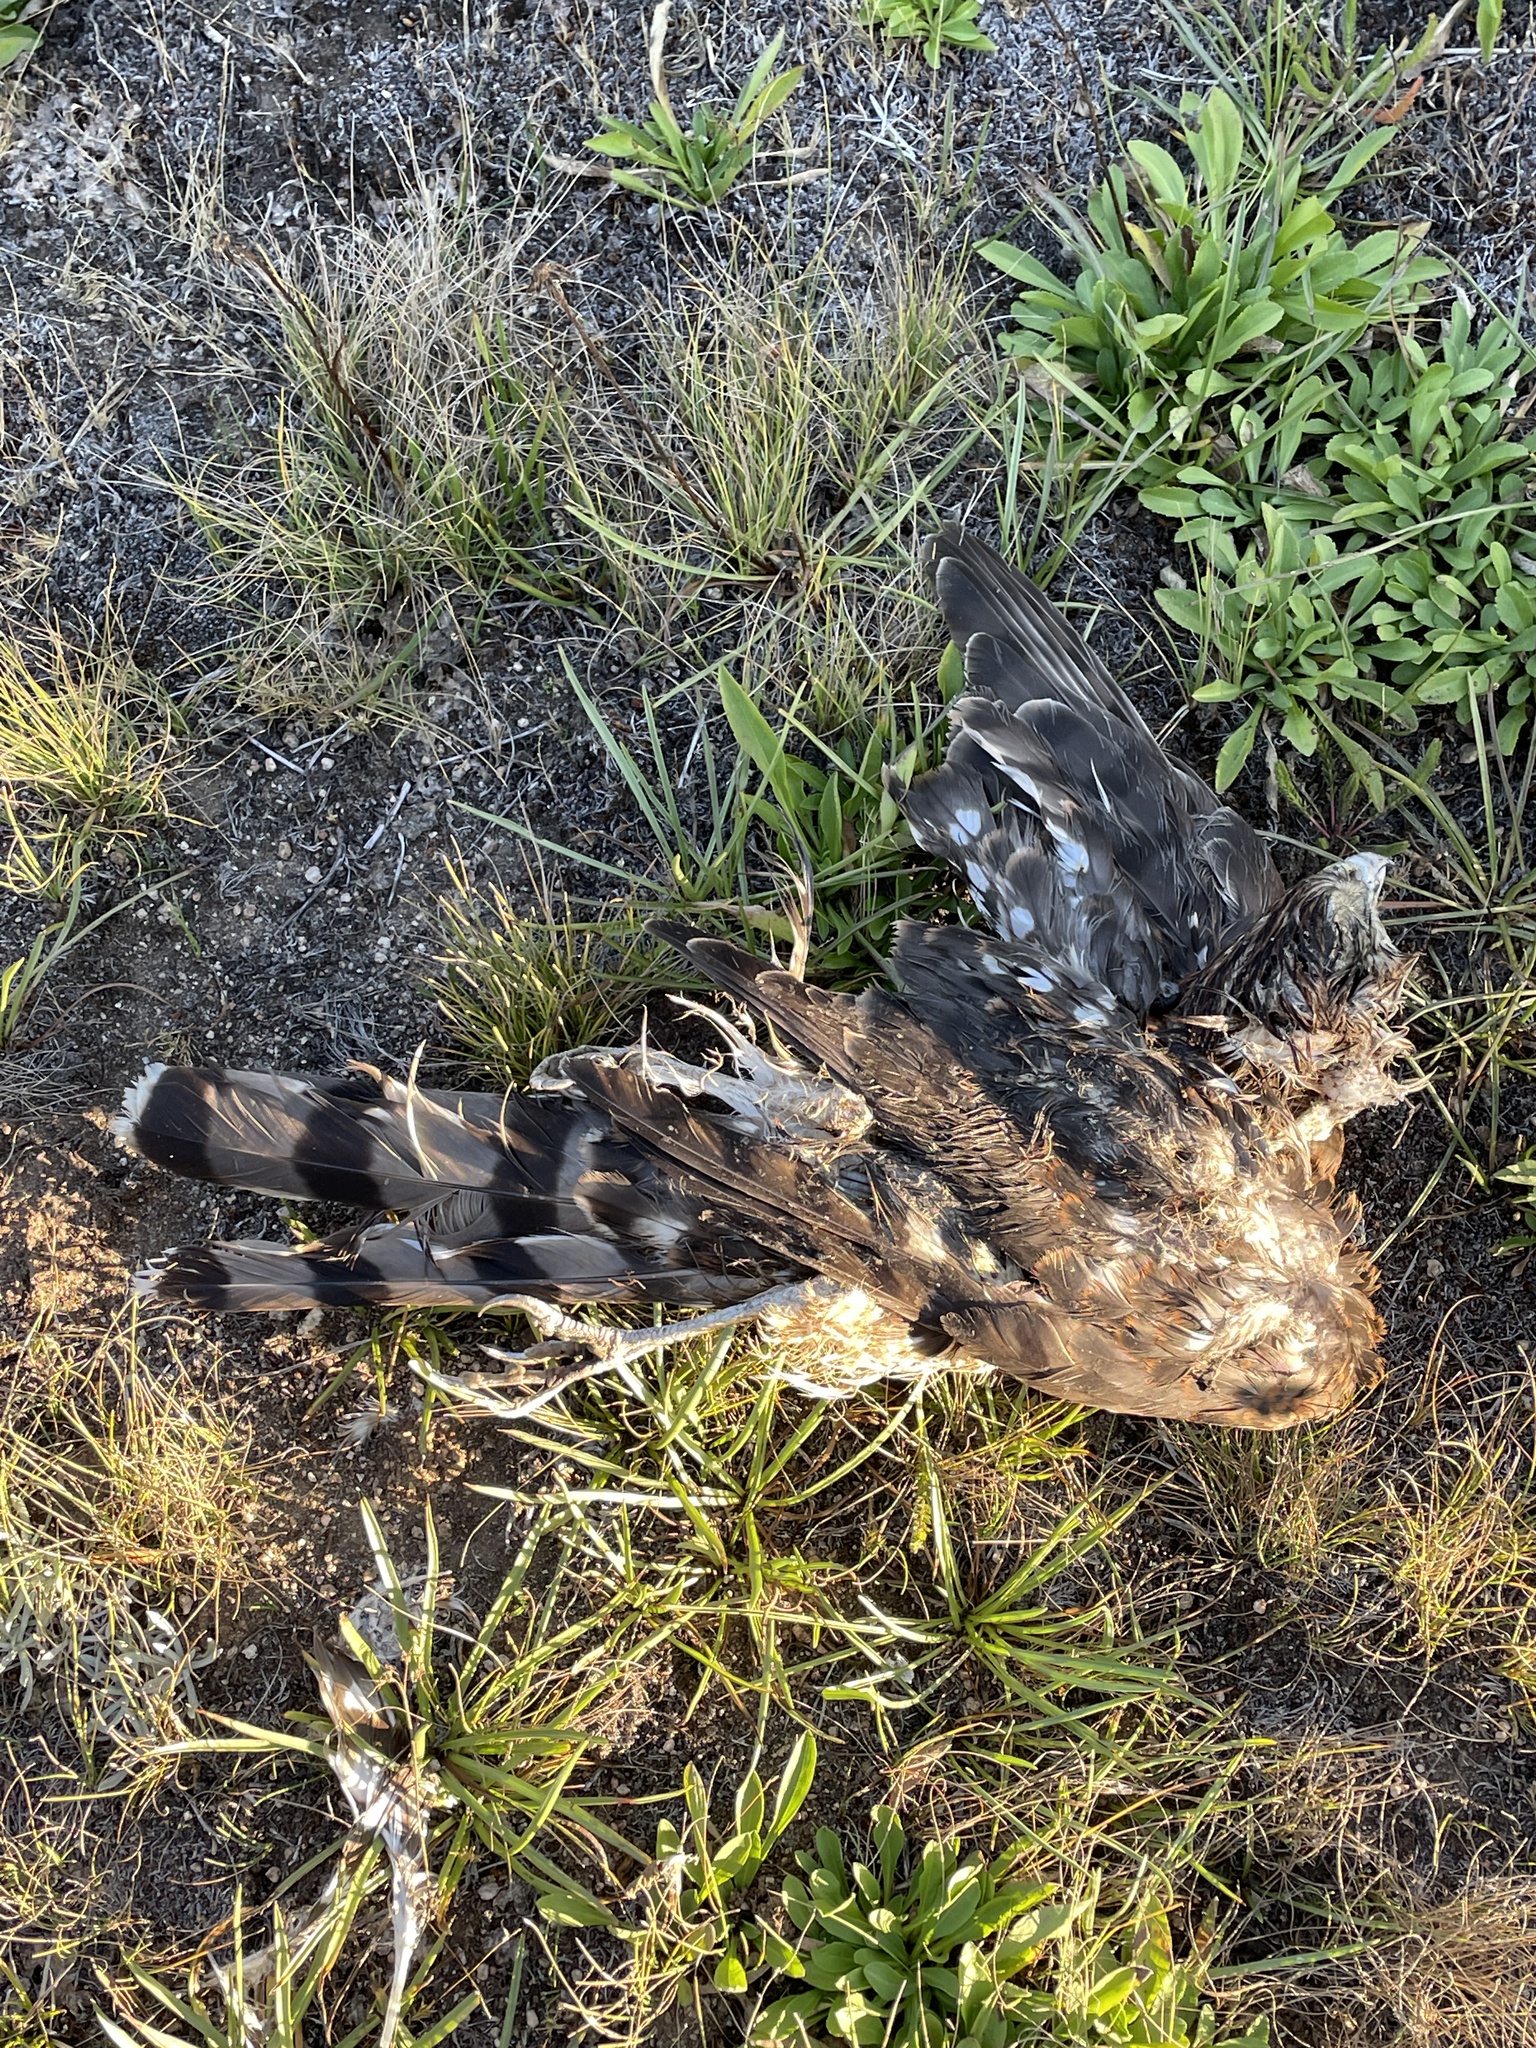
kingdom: Animalia
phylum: Chordata
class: Aves
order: Accipitriformes
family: Accipitridae
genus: Accipiter
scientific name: Accipiter cooperii
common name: Cooper's hawk
